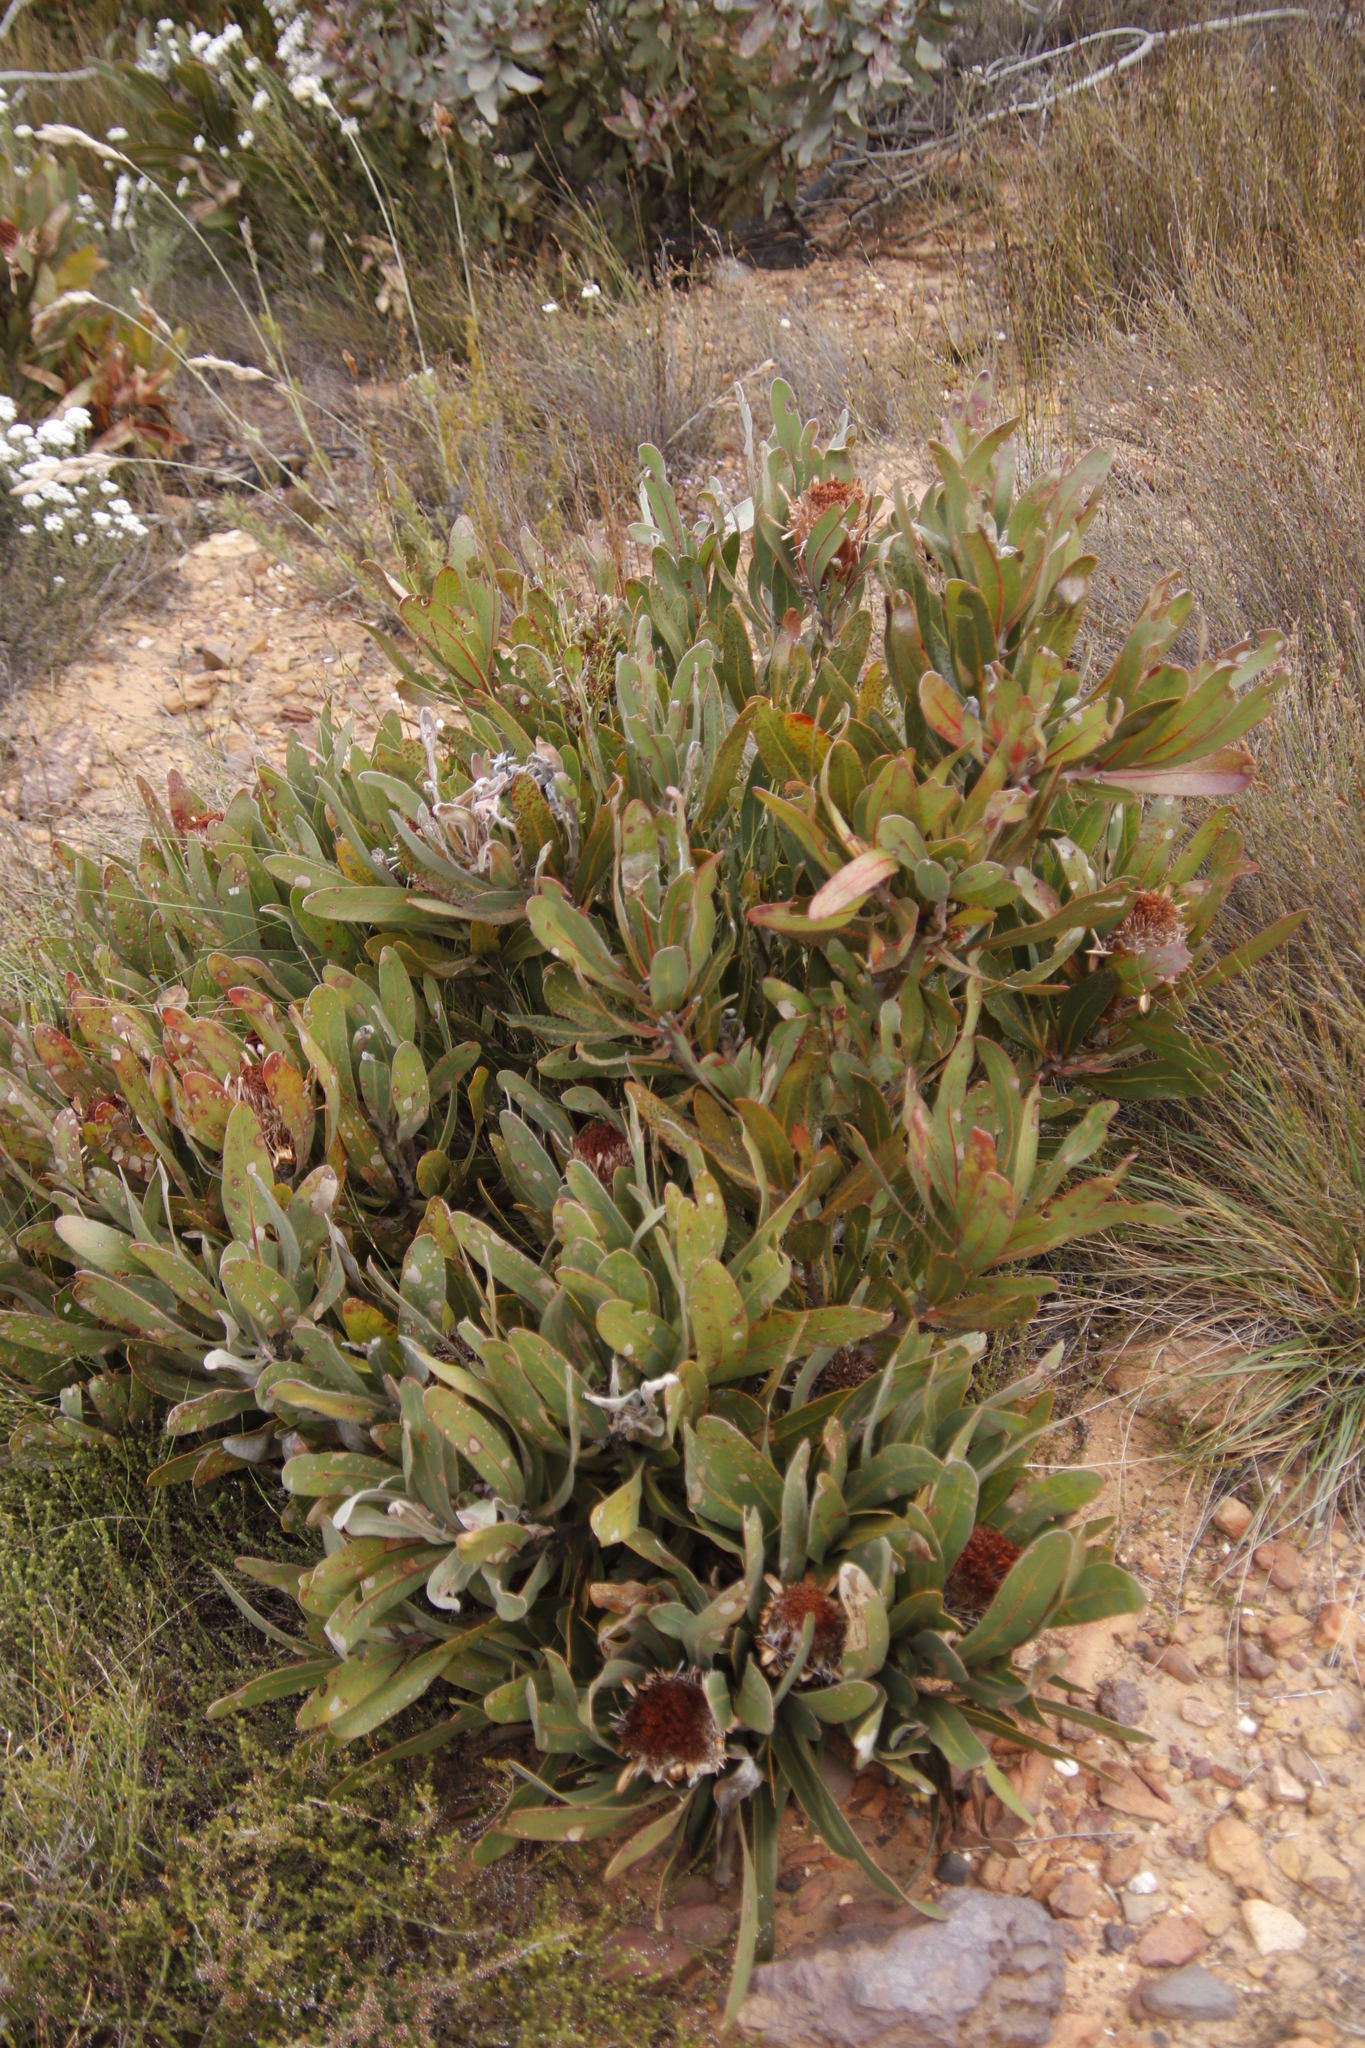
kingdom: Plantae
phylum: Tracheophyta
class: Magnoliopsida
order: Proteales
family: Proteaceae
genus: Protea
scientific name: Protea lorifolia
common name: Strap-leaved protea
